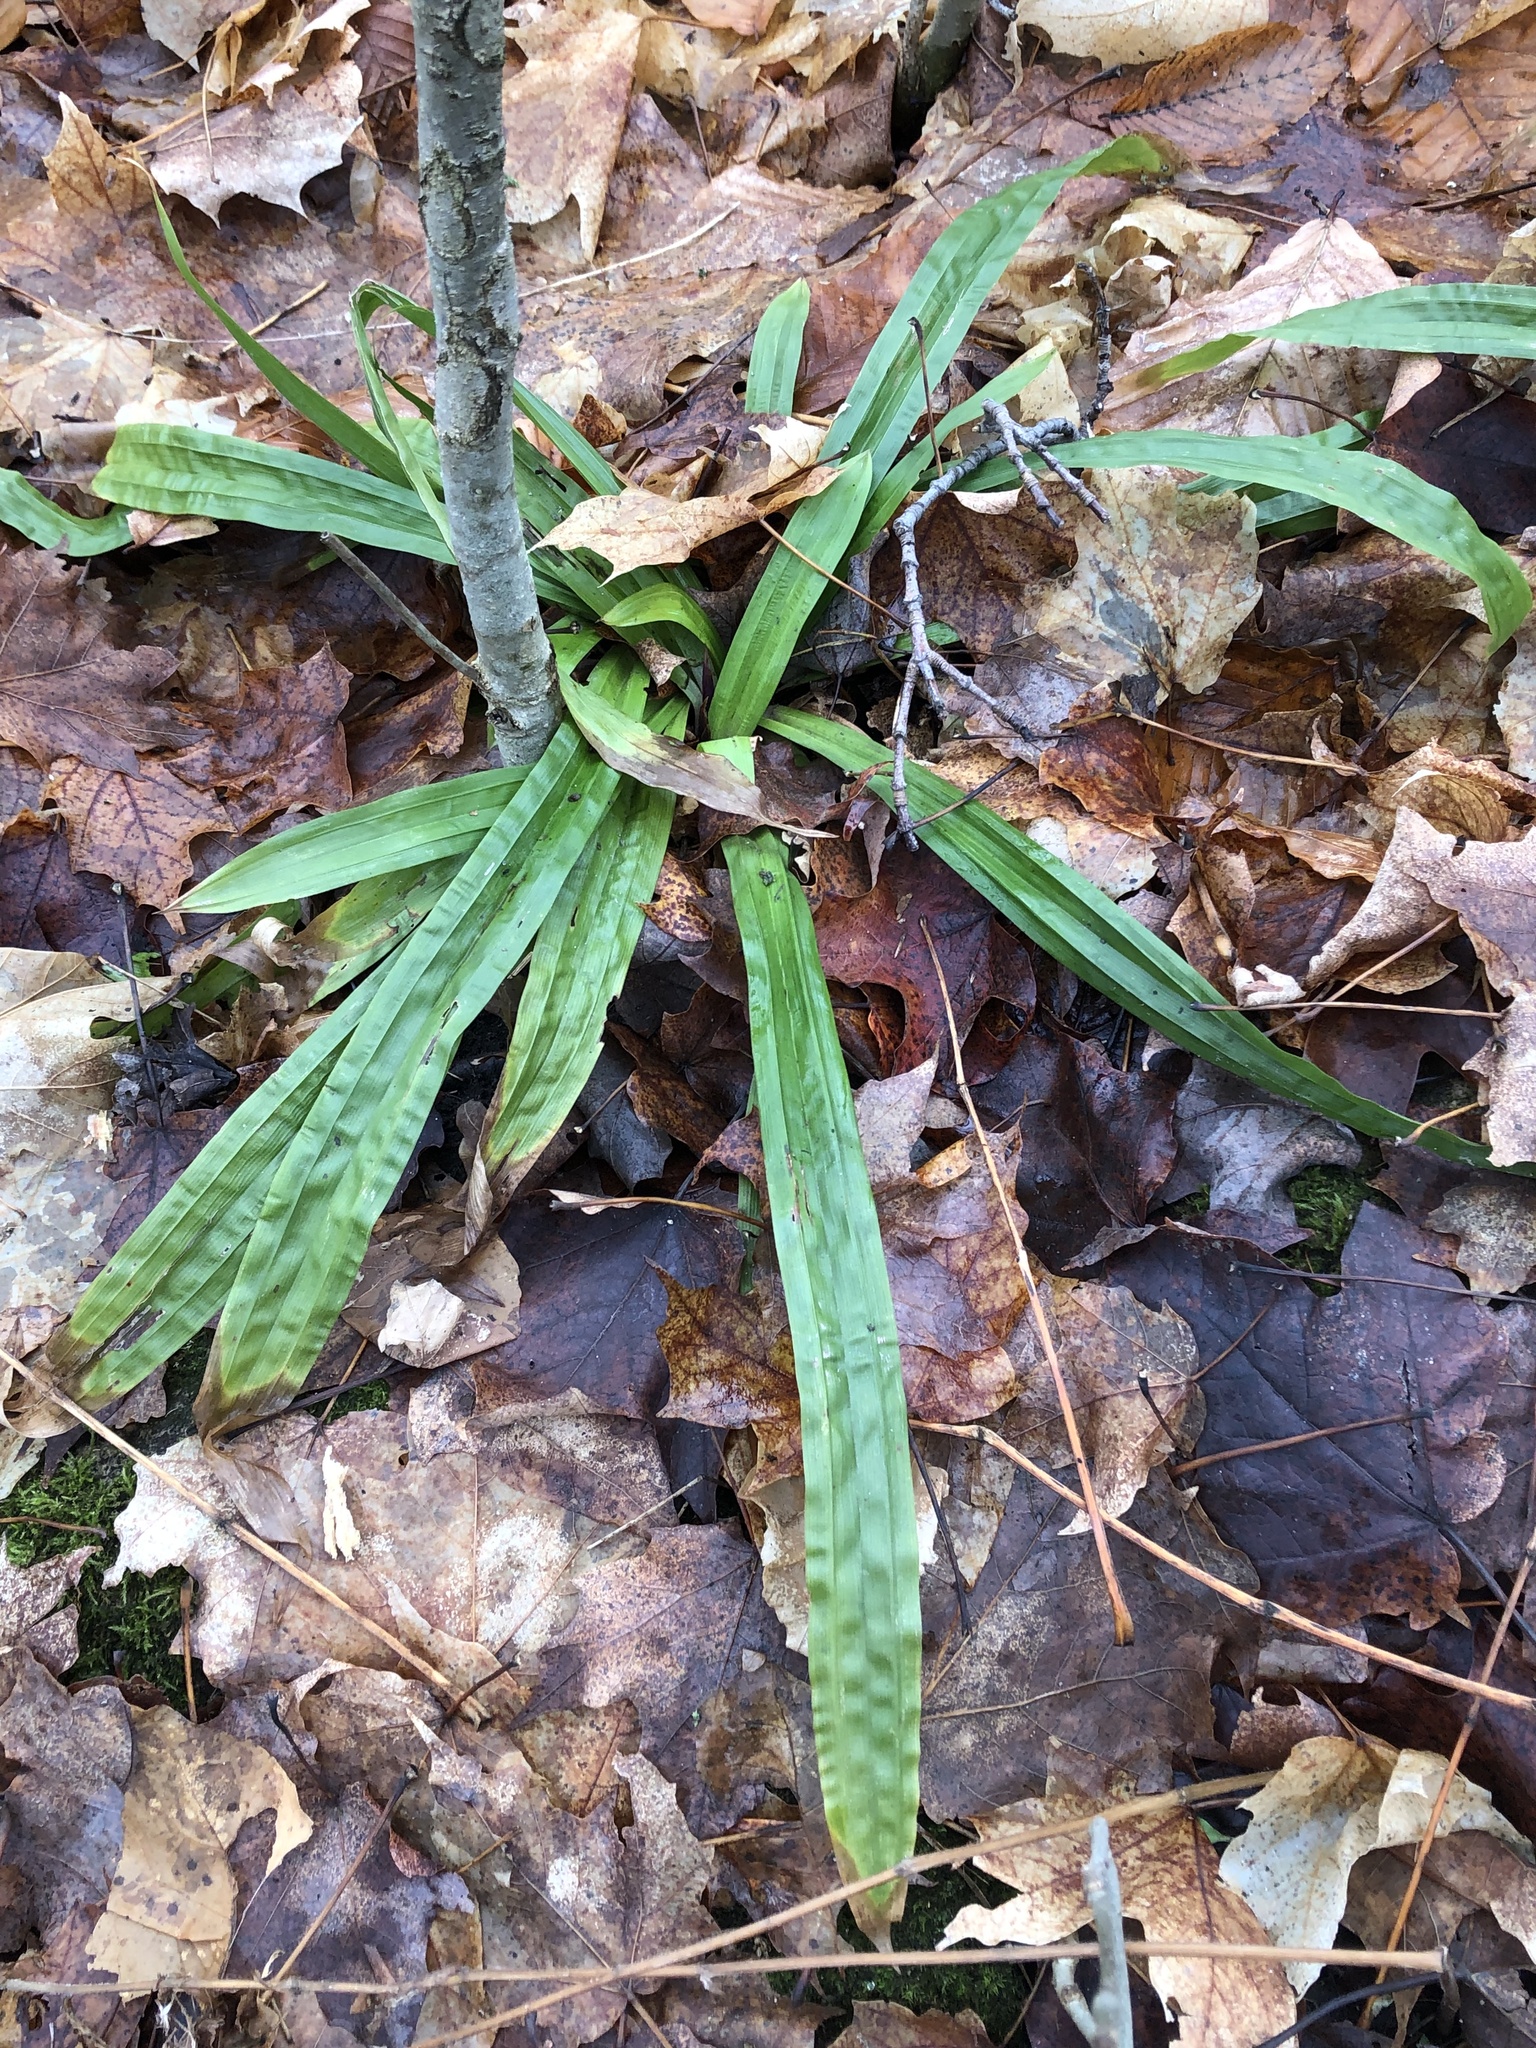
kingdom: Plantae
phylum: Tracheophyta
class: Liliopsida
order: Poales
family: Cyperaceae
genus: Carex
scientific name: Carex plantaginea
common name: Plantain-leaved sedge
